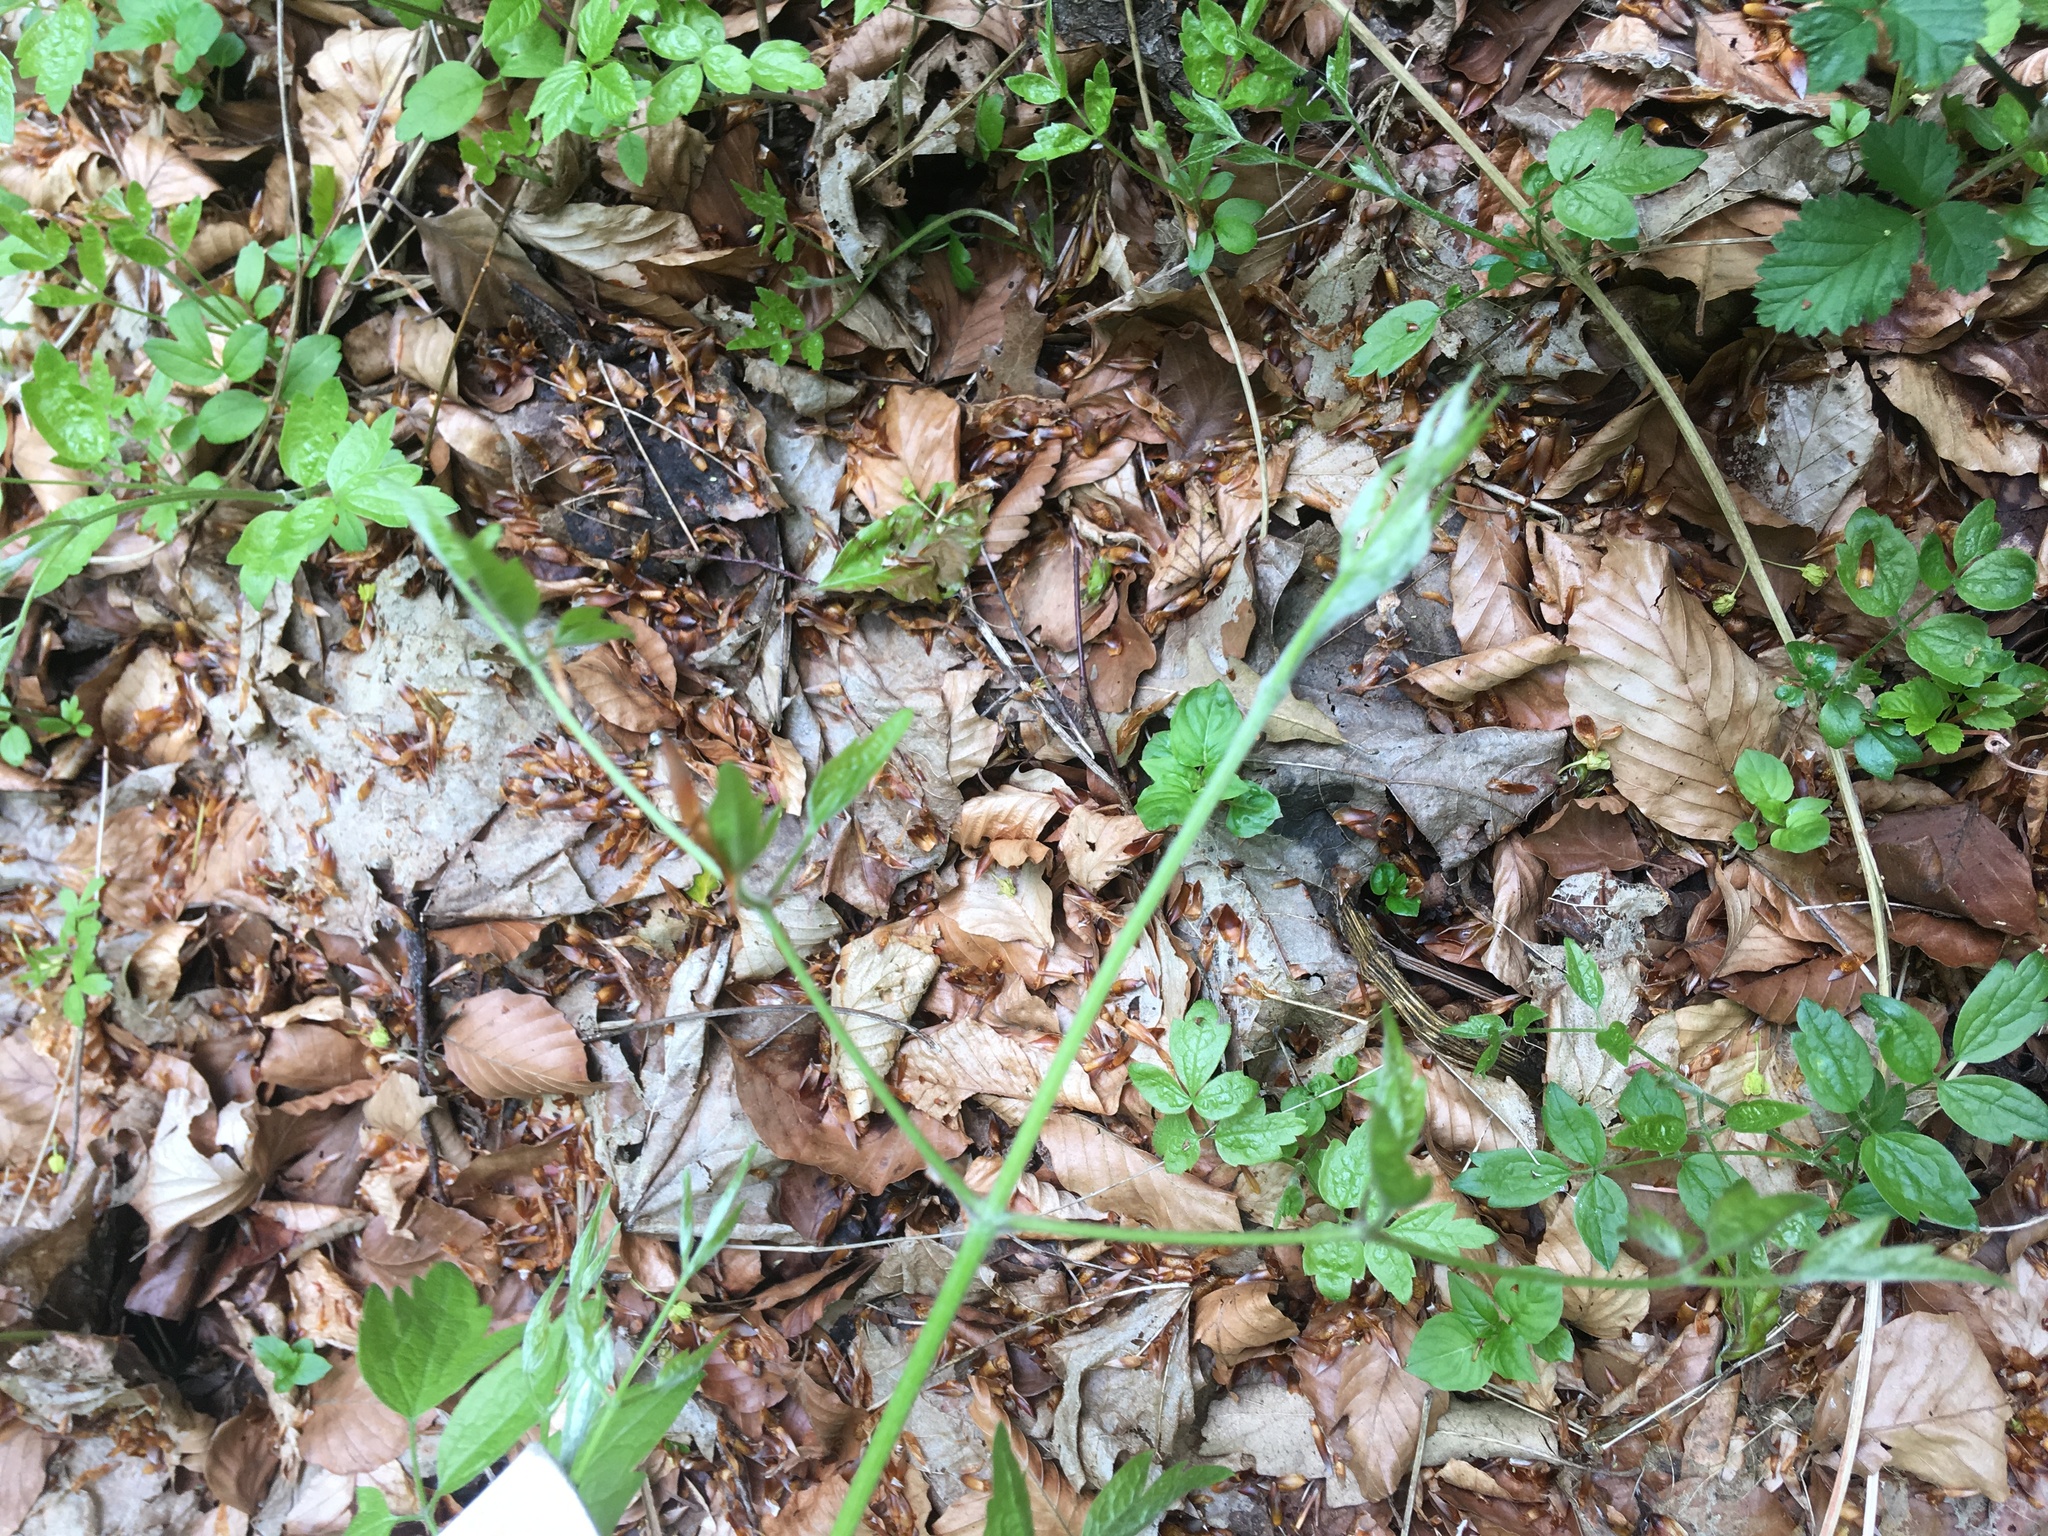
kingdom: Plantae
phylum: Tracheophyta
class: Magnoliopsida
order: Ranunculales
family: Ranunculaceae
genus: Clematis
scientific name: Clematis vitalba
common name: Evergreen clematis
